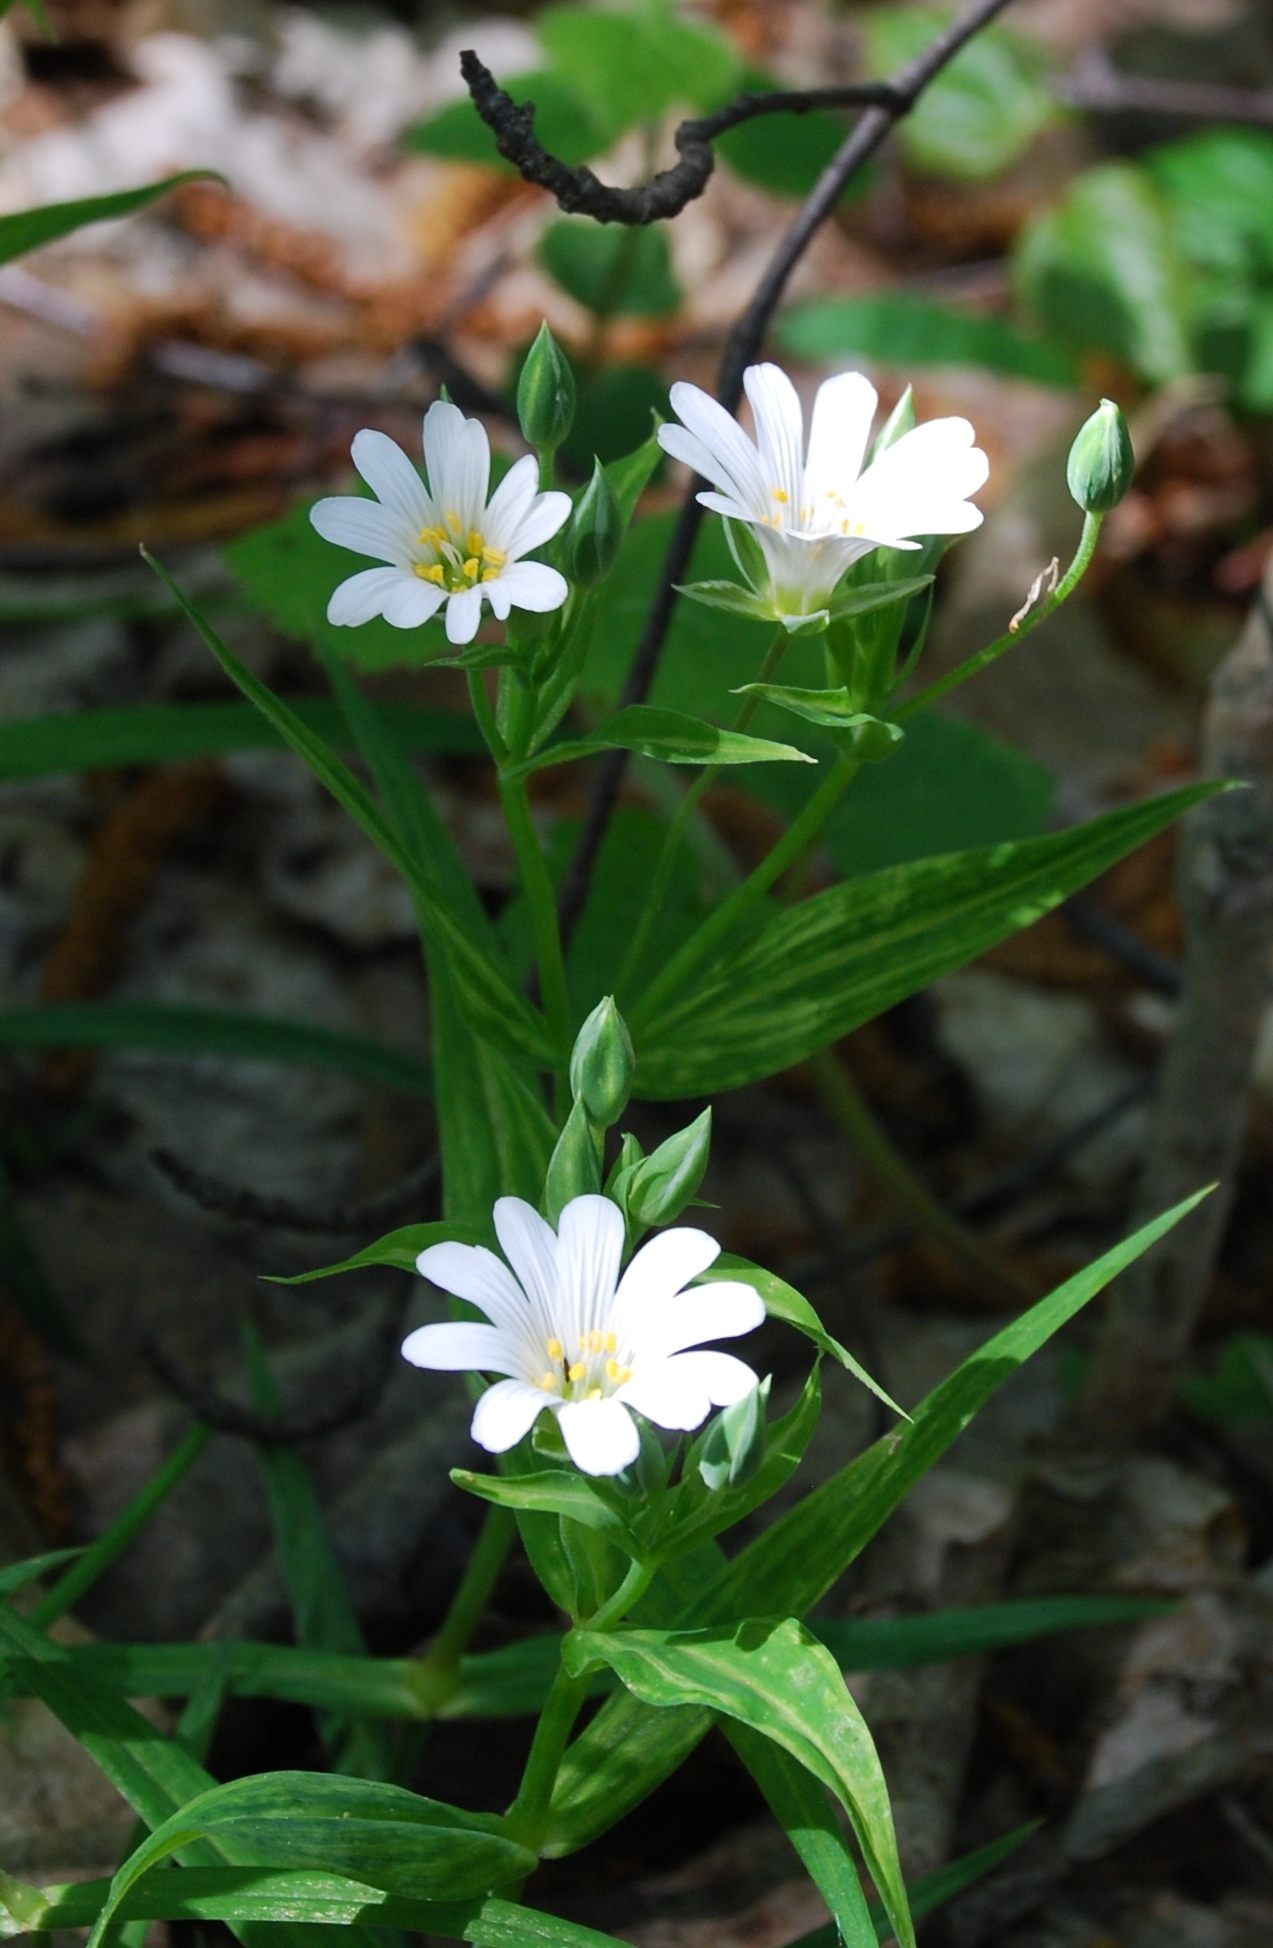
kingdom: Plantae
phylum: Tracheophyta
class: Magnoliopsida
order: Caryophyllales
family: Caryophyllaceae
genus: Rabelera
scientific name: Rabelera holostea
